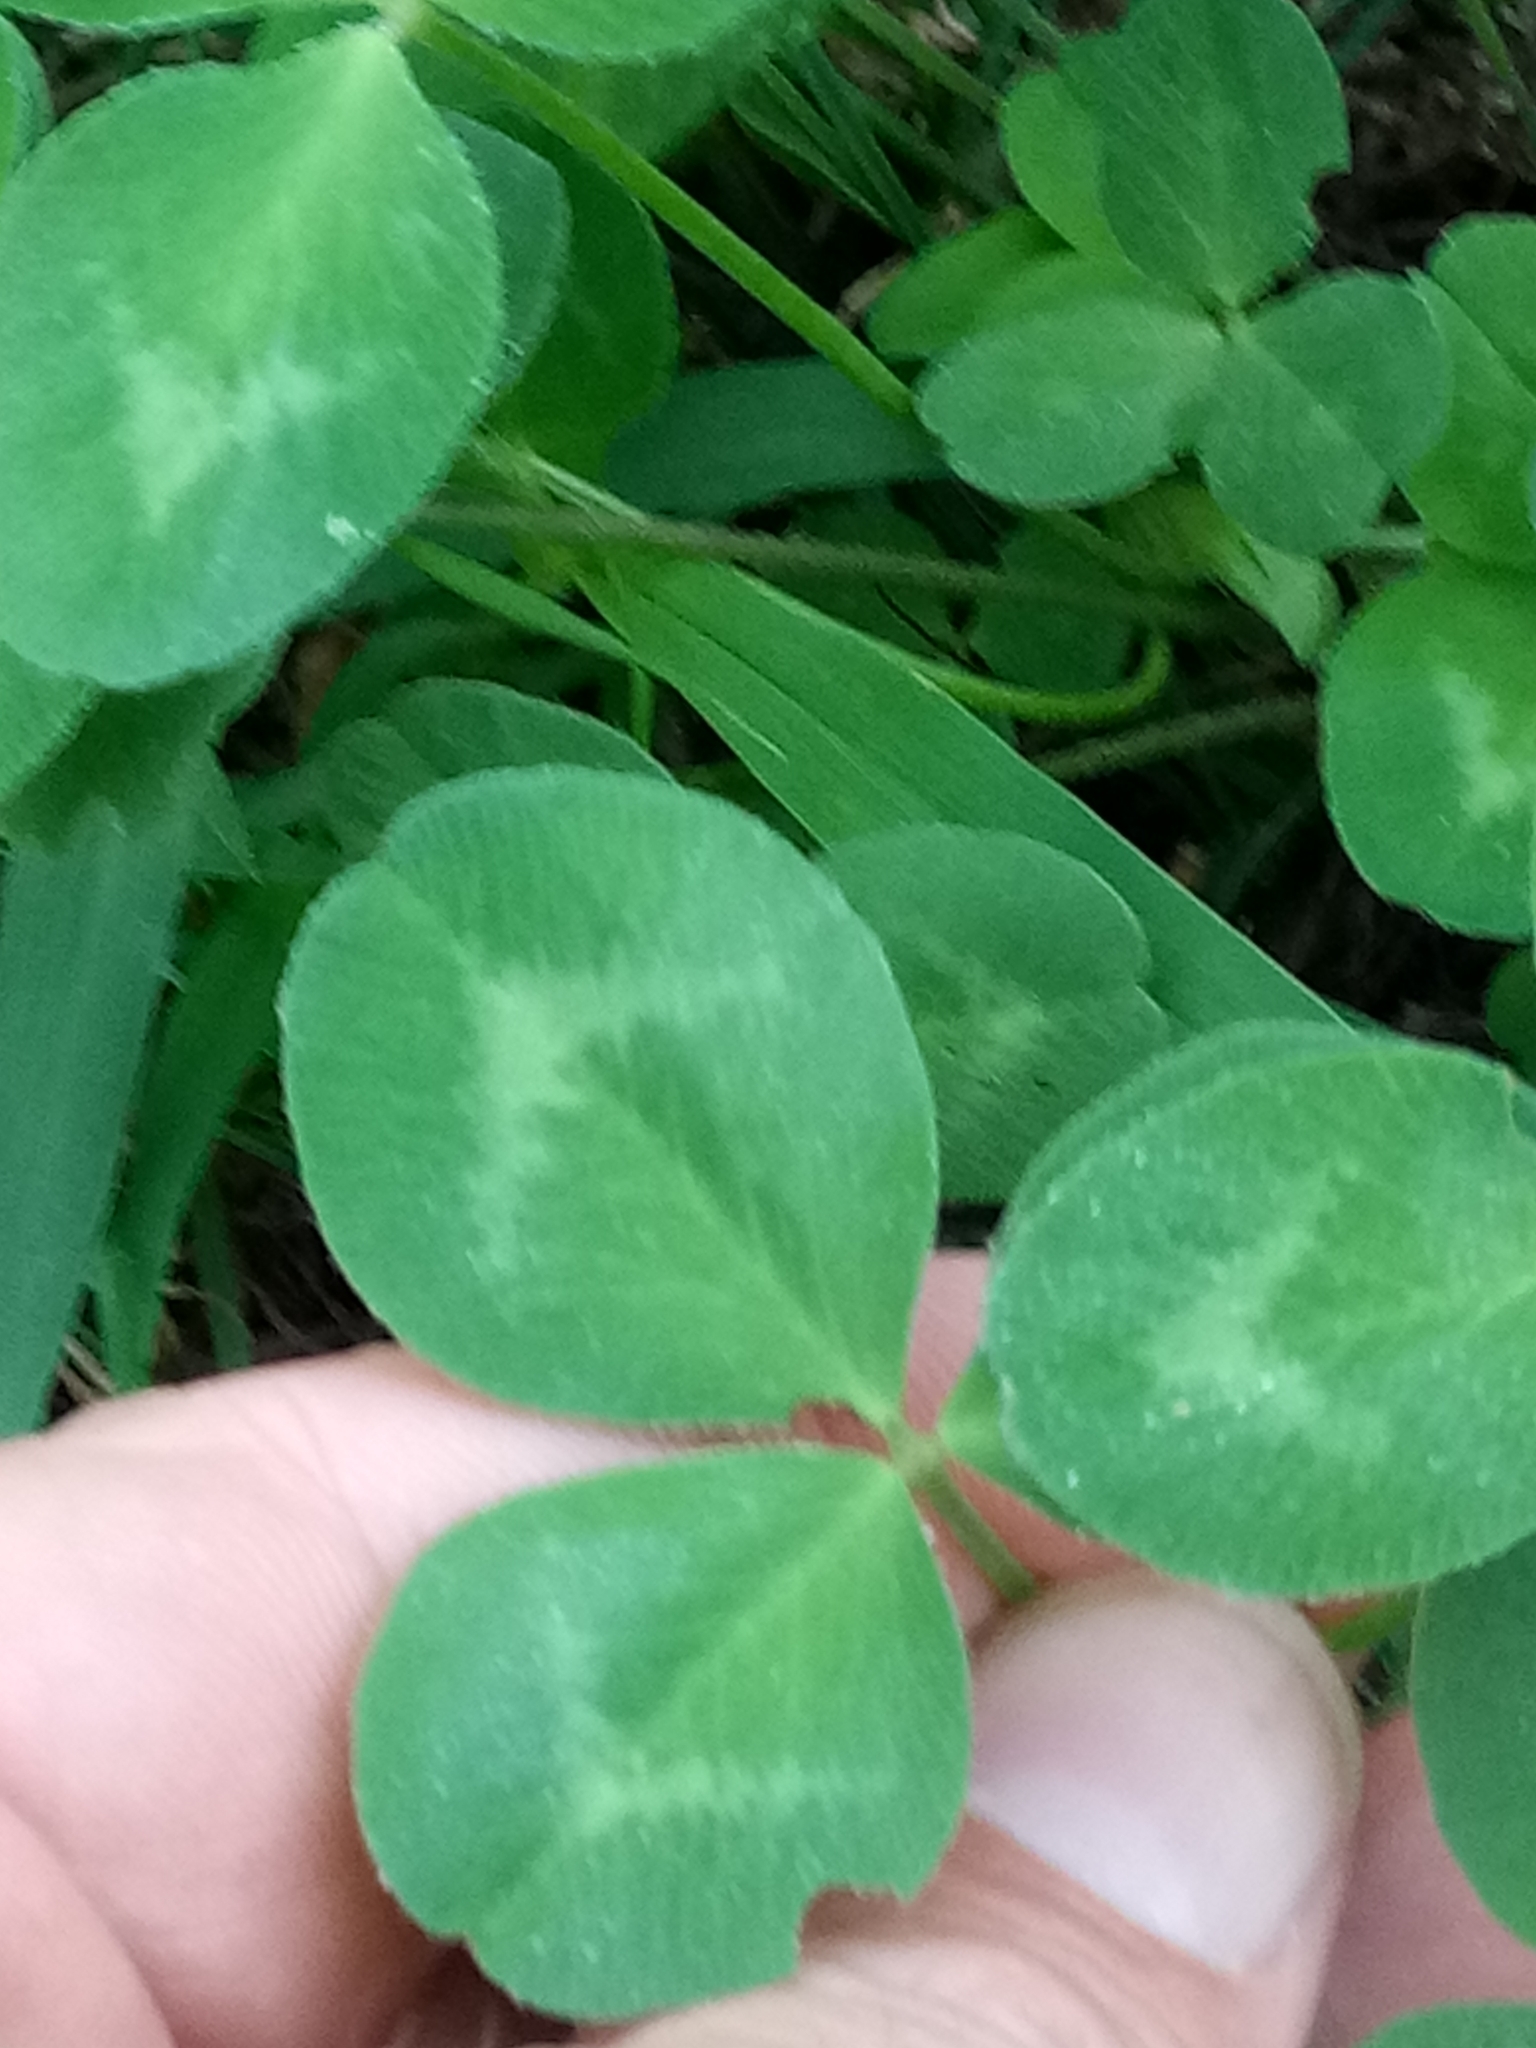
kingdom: Plantae
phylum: Tracheophyta
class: Magnoliopsida
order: Fabales
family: Fabaceae
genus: Trifolium
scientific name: Trifolium repens
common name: White clover
